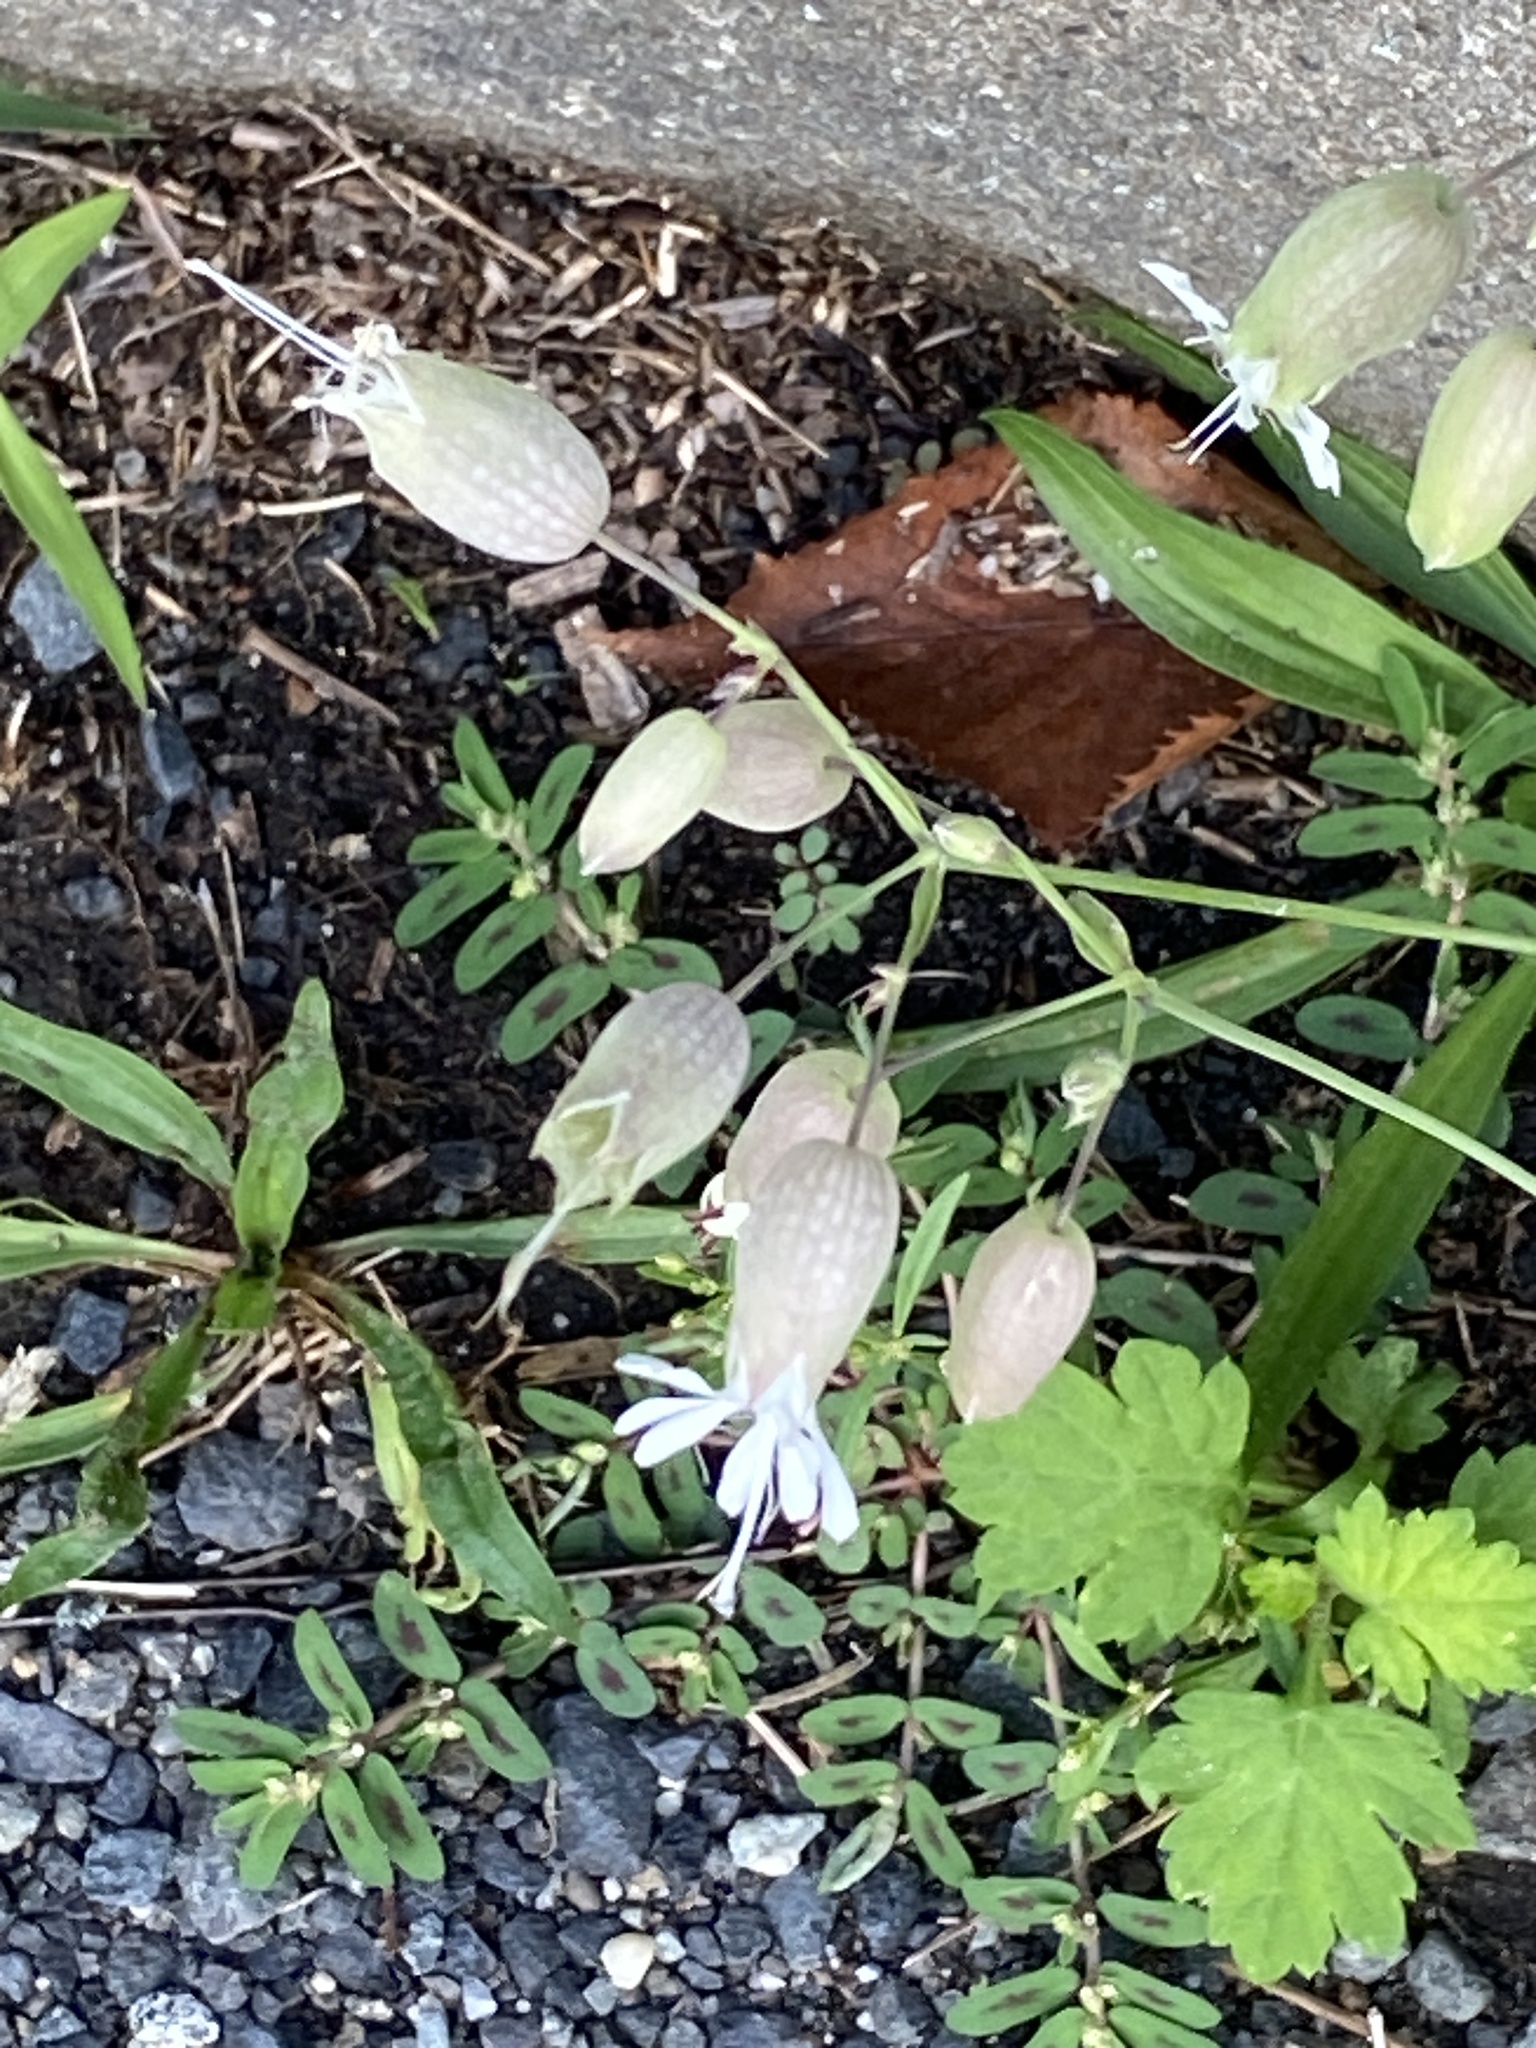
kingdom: Plantae
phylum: Tracheophyta
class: Magnoliopsida
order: Caryophyllales
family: Caryophyllaceae
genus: Silene
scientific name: Silene vulgaris
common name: Bladder campion
